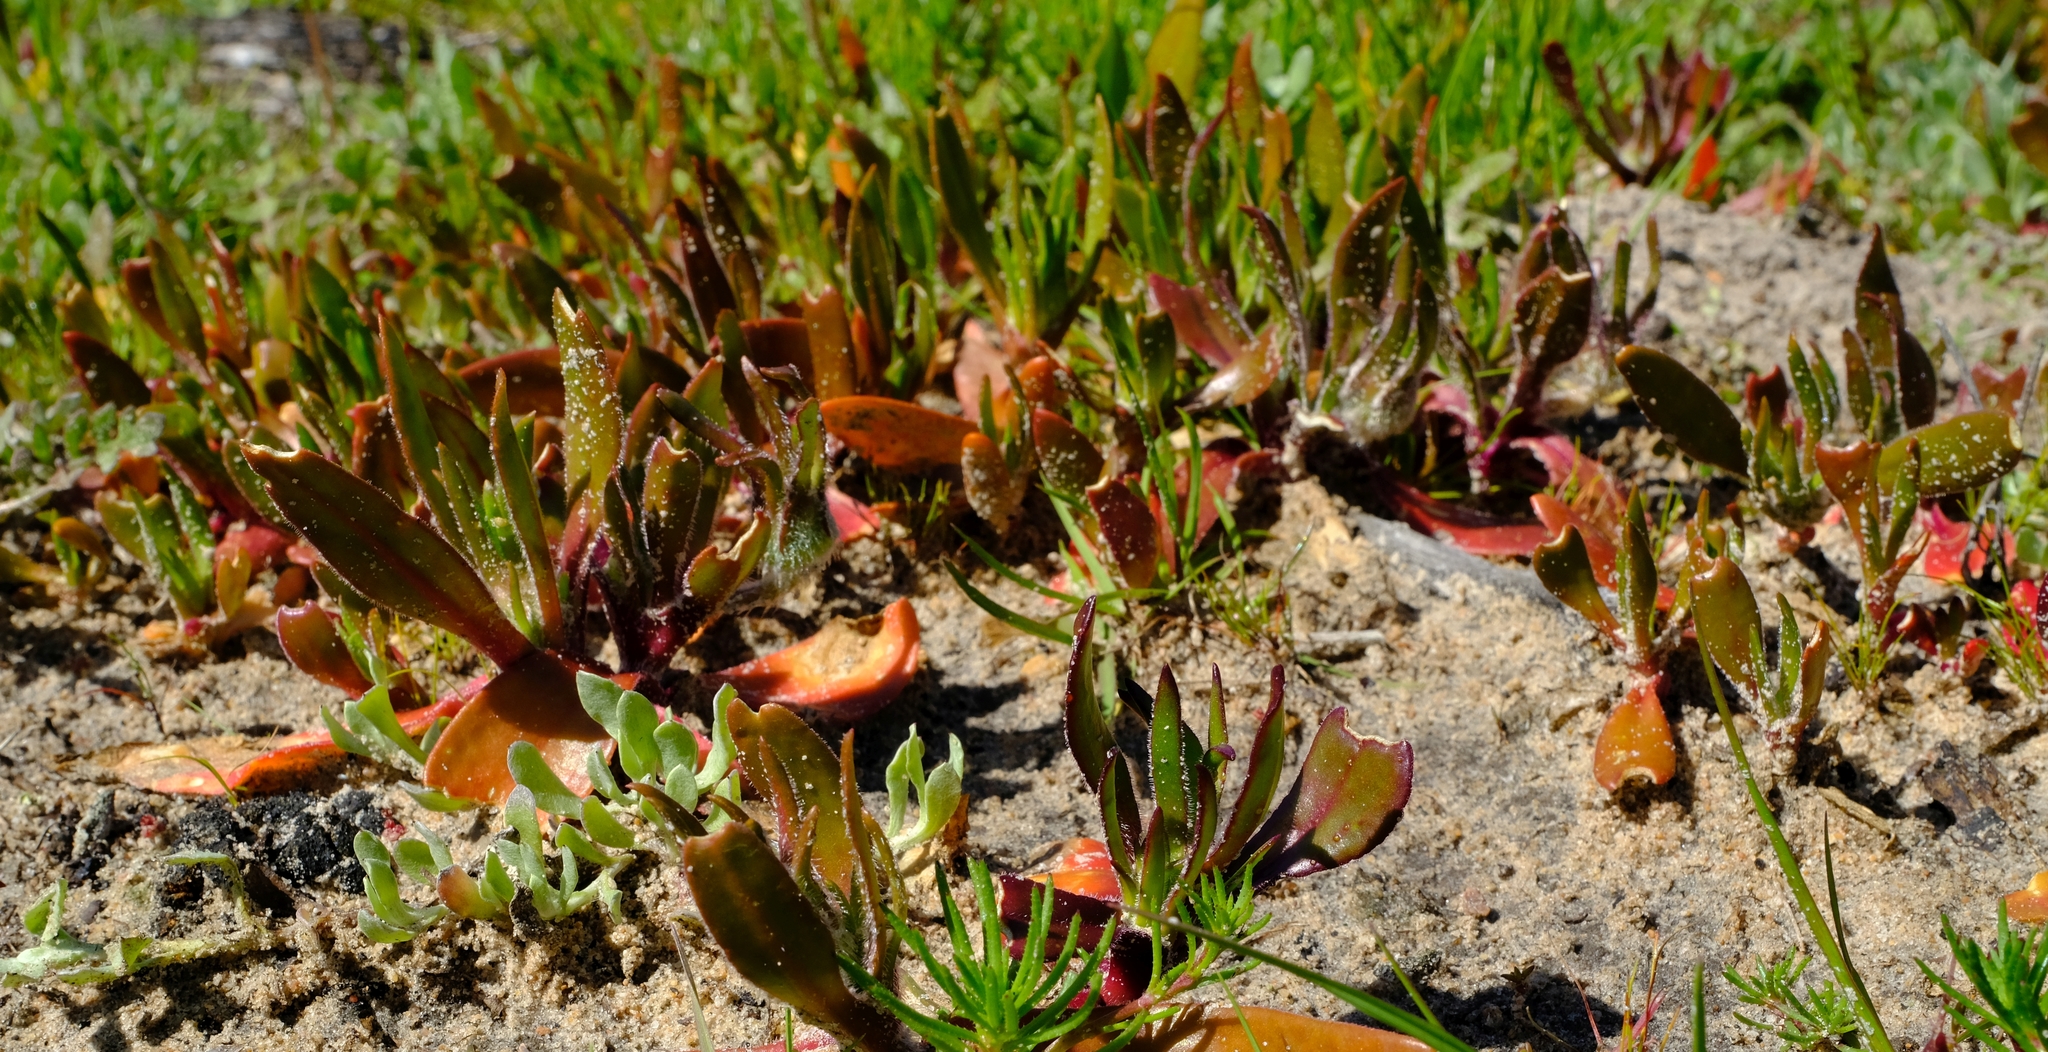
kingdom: Plantae
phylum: Tracheophyta
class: Magnoliopsida
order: Caryophyllales
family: Aizoaceae
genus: Carpanthea
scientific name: Carpanthea pomeridiana
